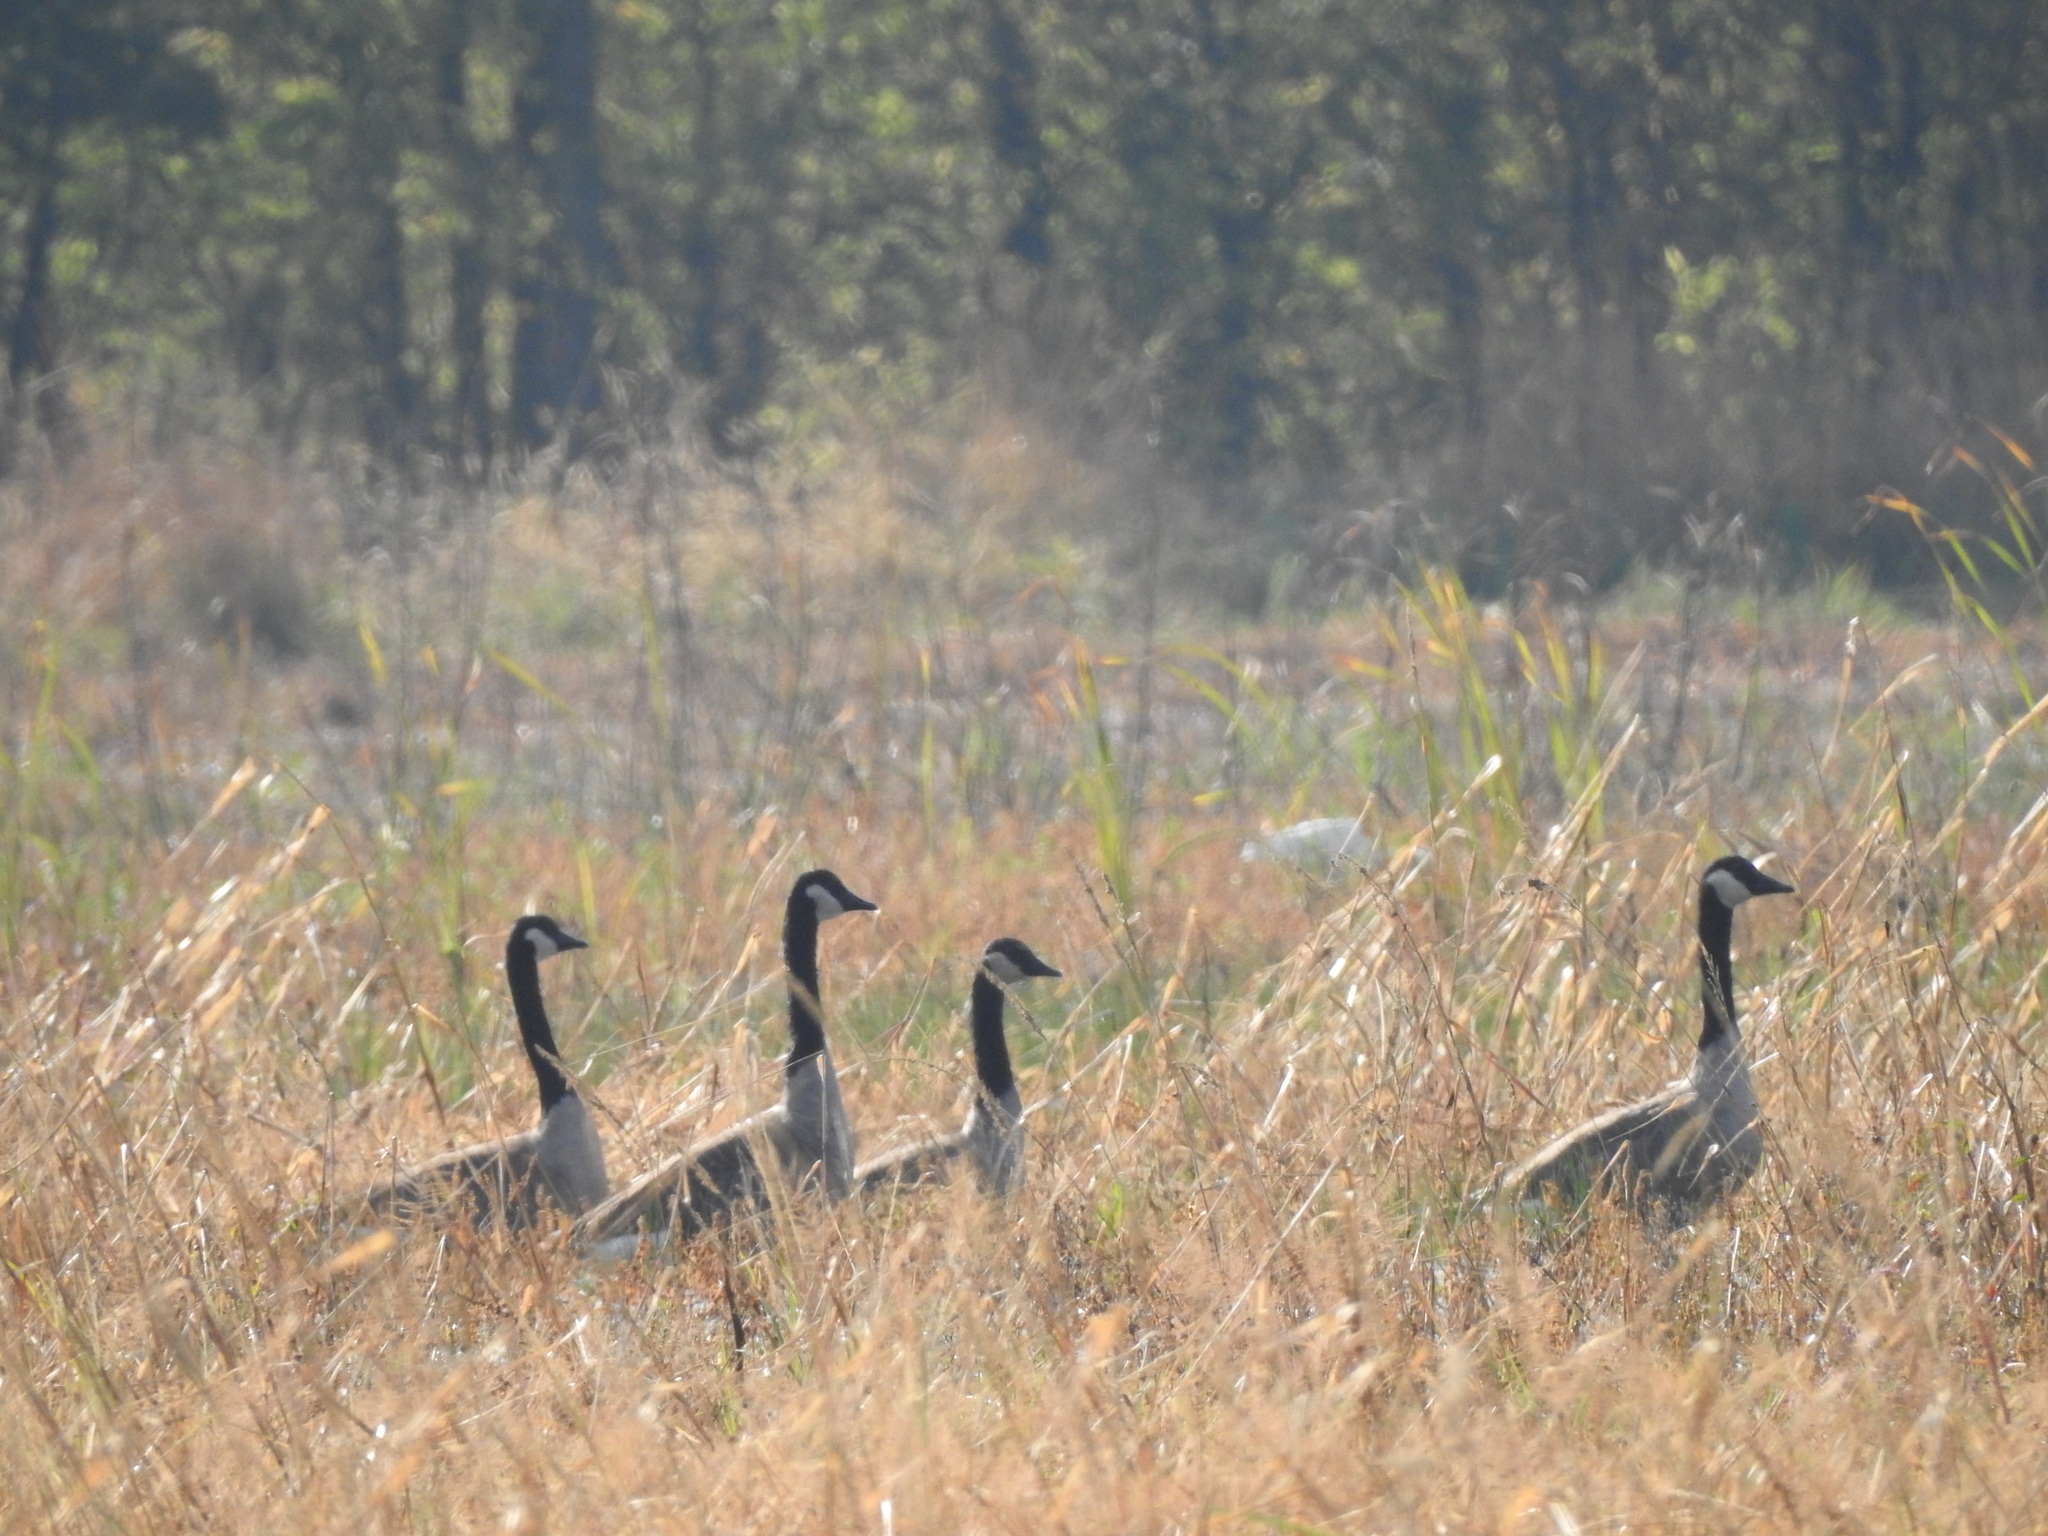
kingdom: Animalia
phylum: Chordata
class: Aves
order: Anseriformes
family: Anatidae
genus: Branta
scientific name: Branta canadensis
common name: Canada goose
